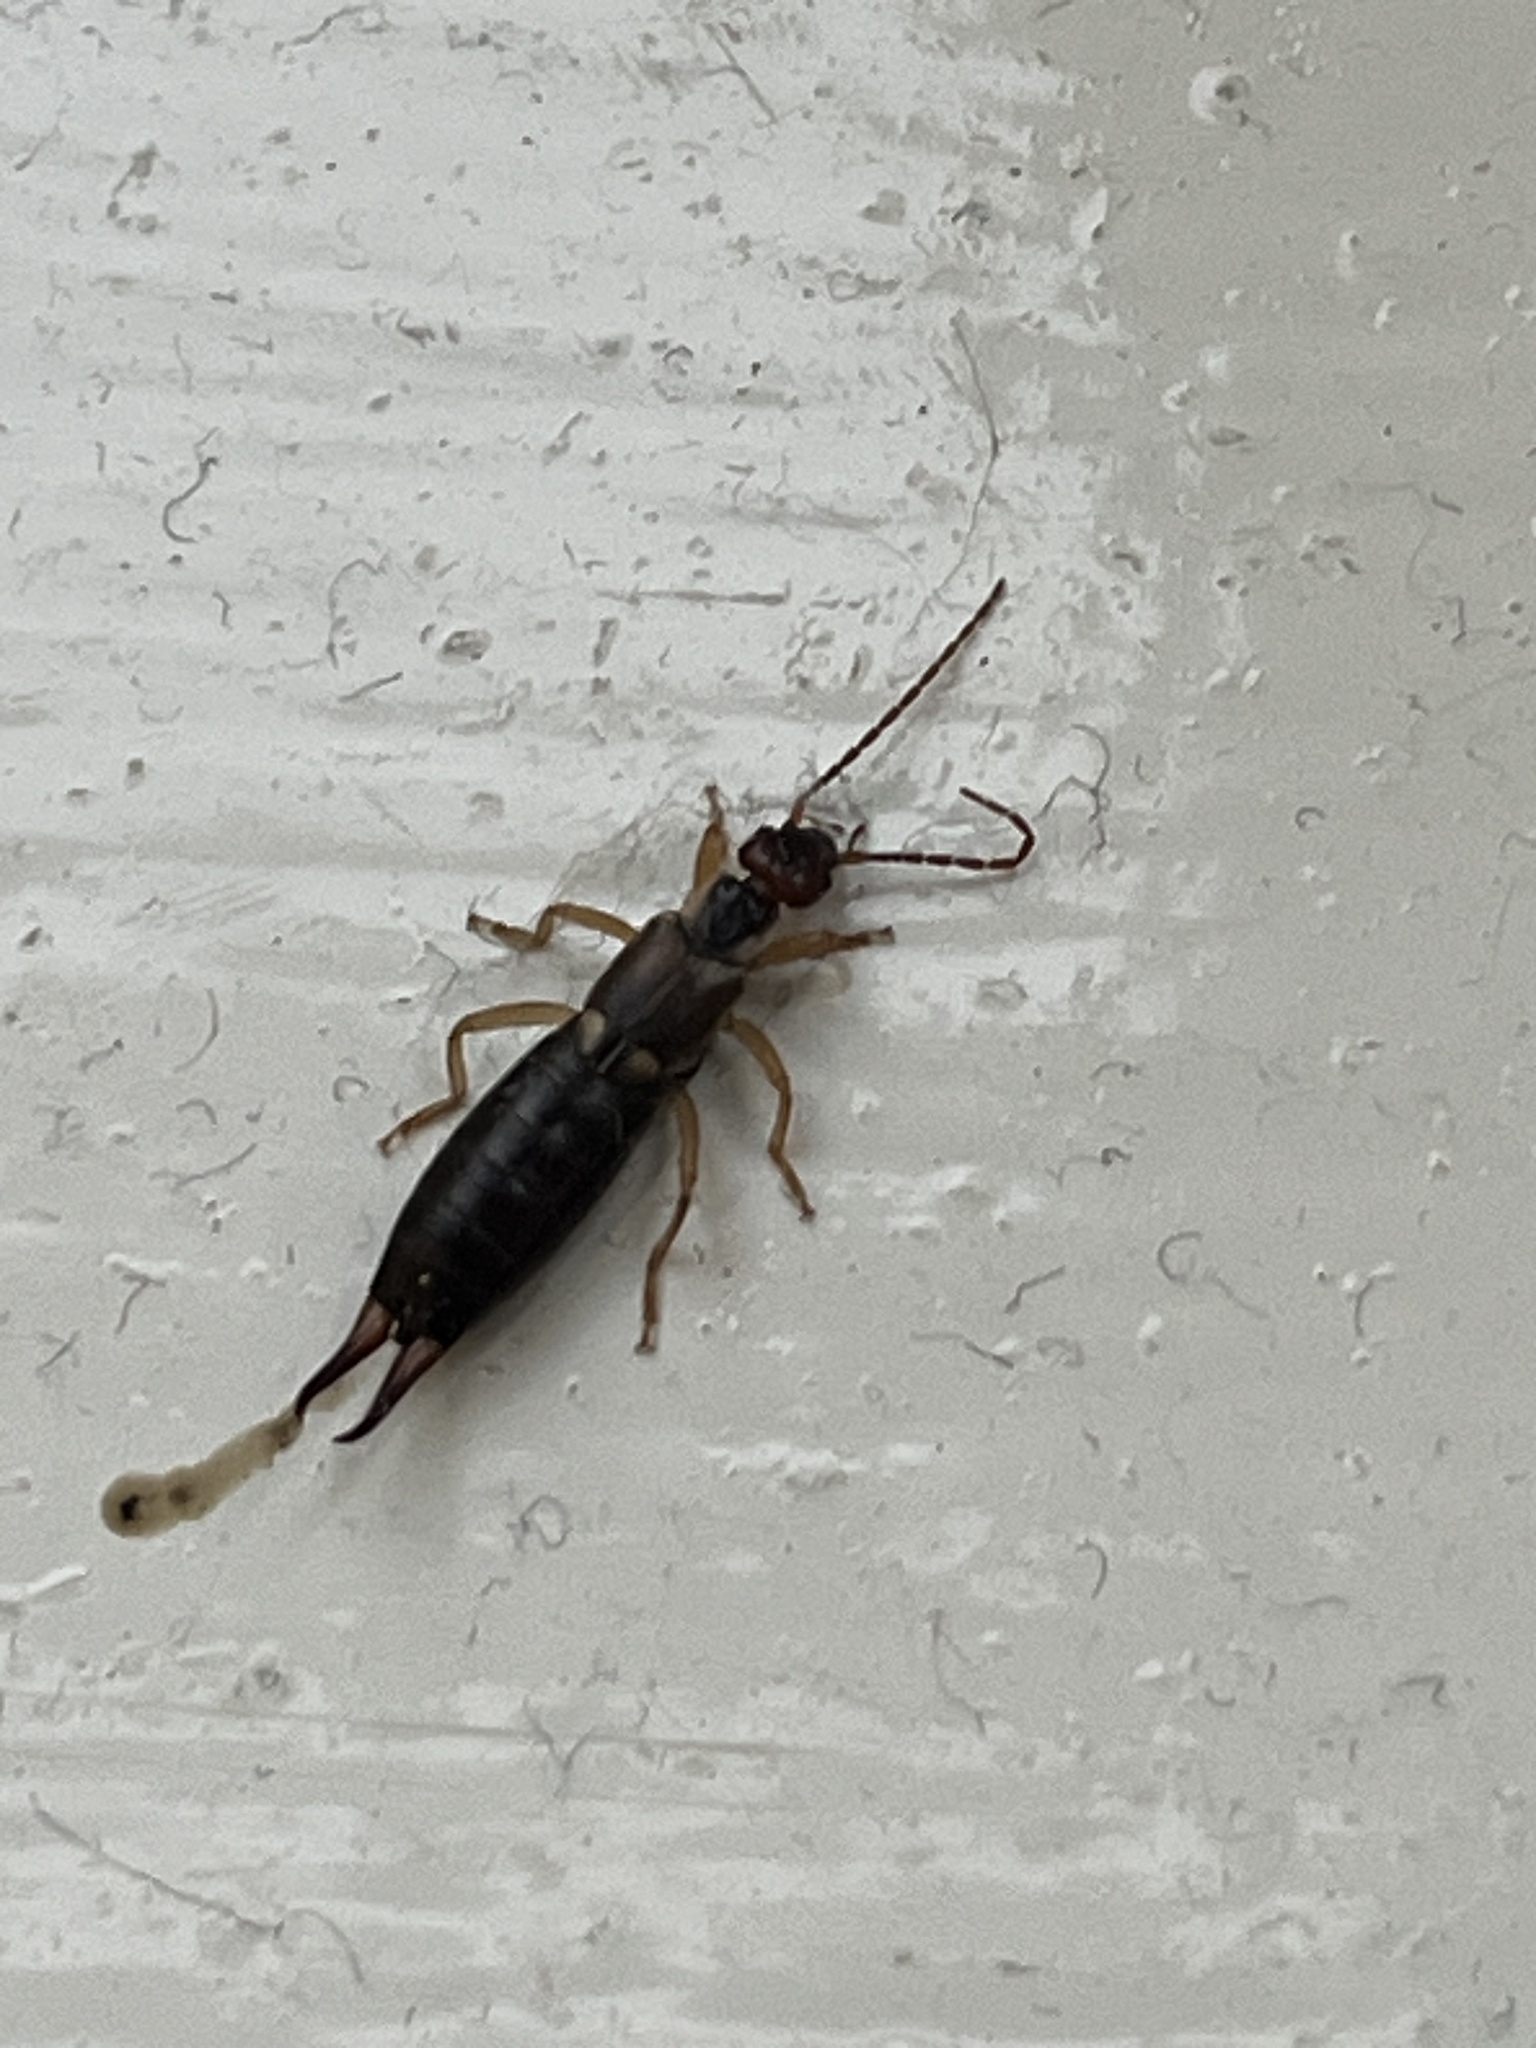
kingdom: Animalia
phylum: Arthropoda
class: Insecta
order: Dermaptera
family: Forficulidae
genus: Forficula
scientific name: Forficula dentata
